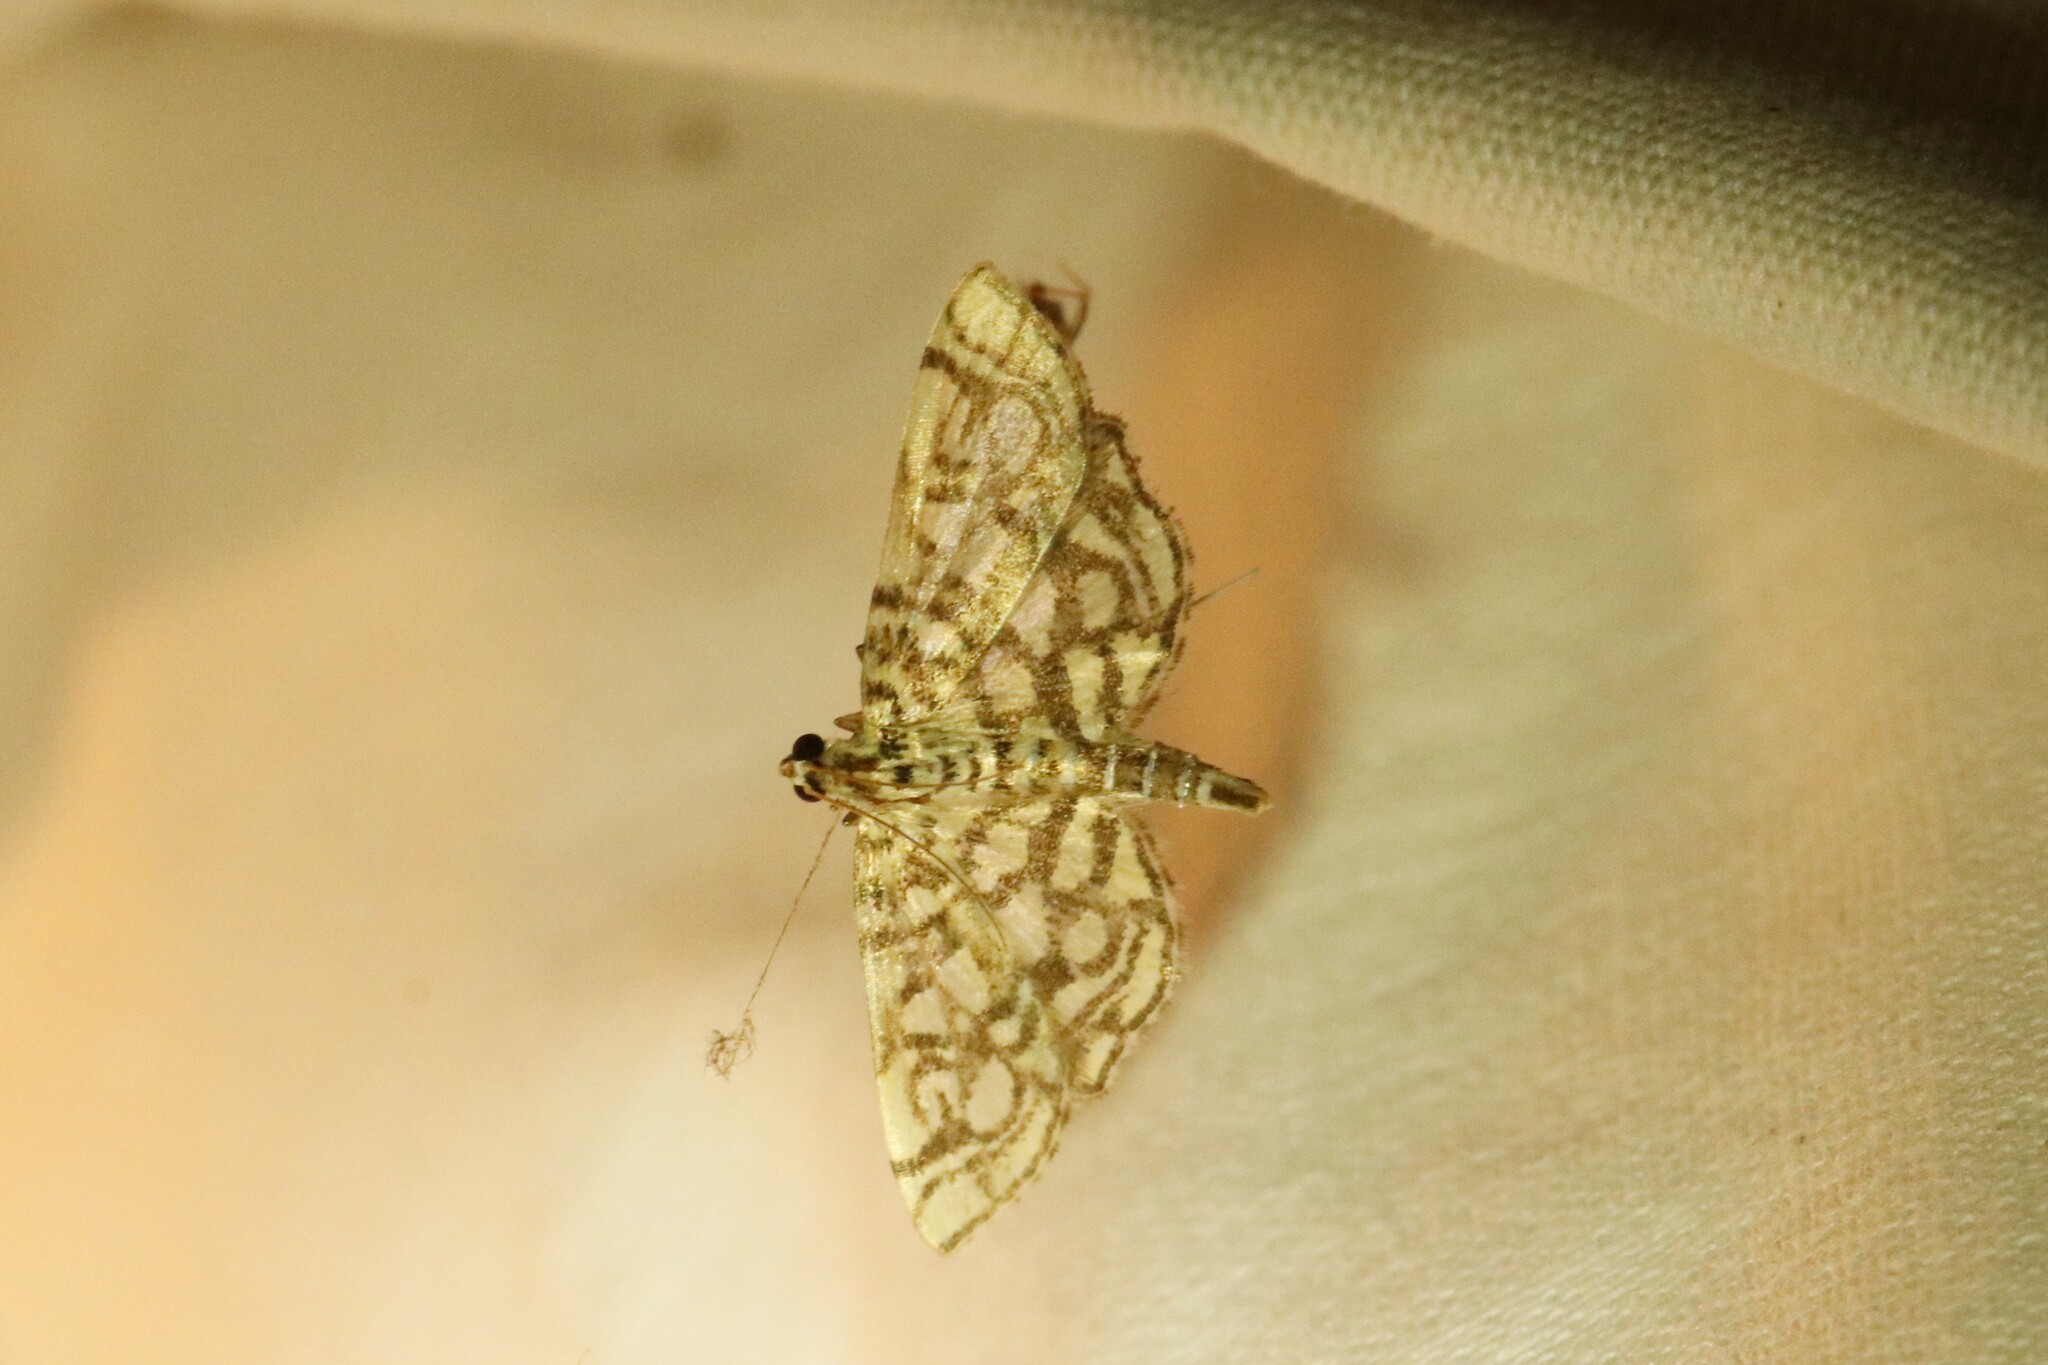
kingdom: Animalia
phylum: Arthropoda
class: Insecta
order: Lepidoptera
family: Crambidae
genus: Lygropia
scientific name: Lygropia rivulalis
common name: Bog lygropia moth
